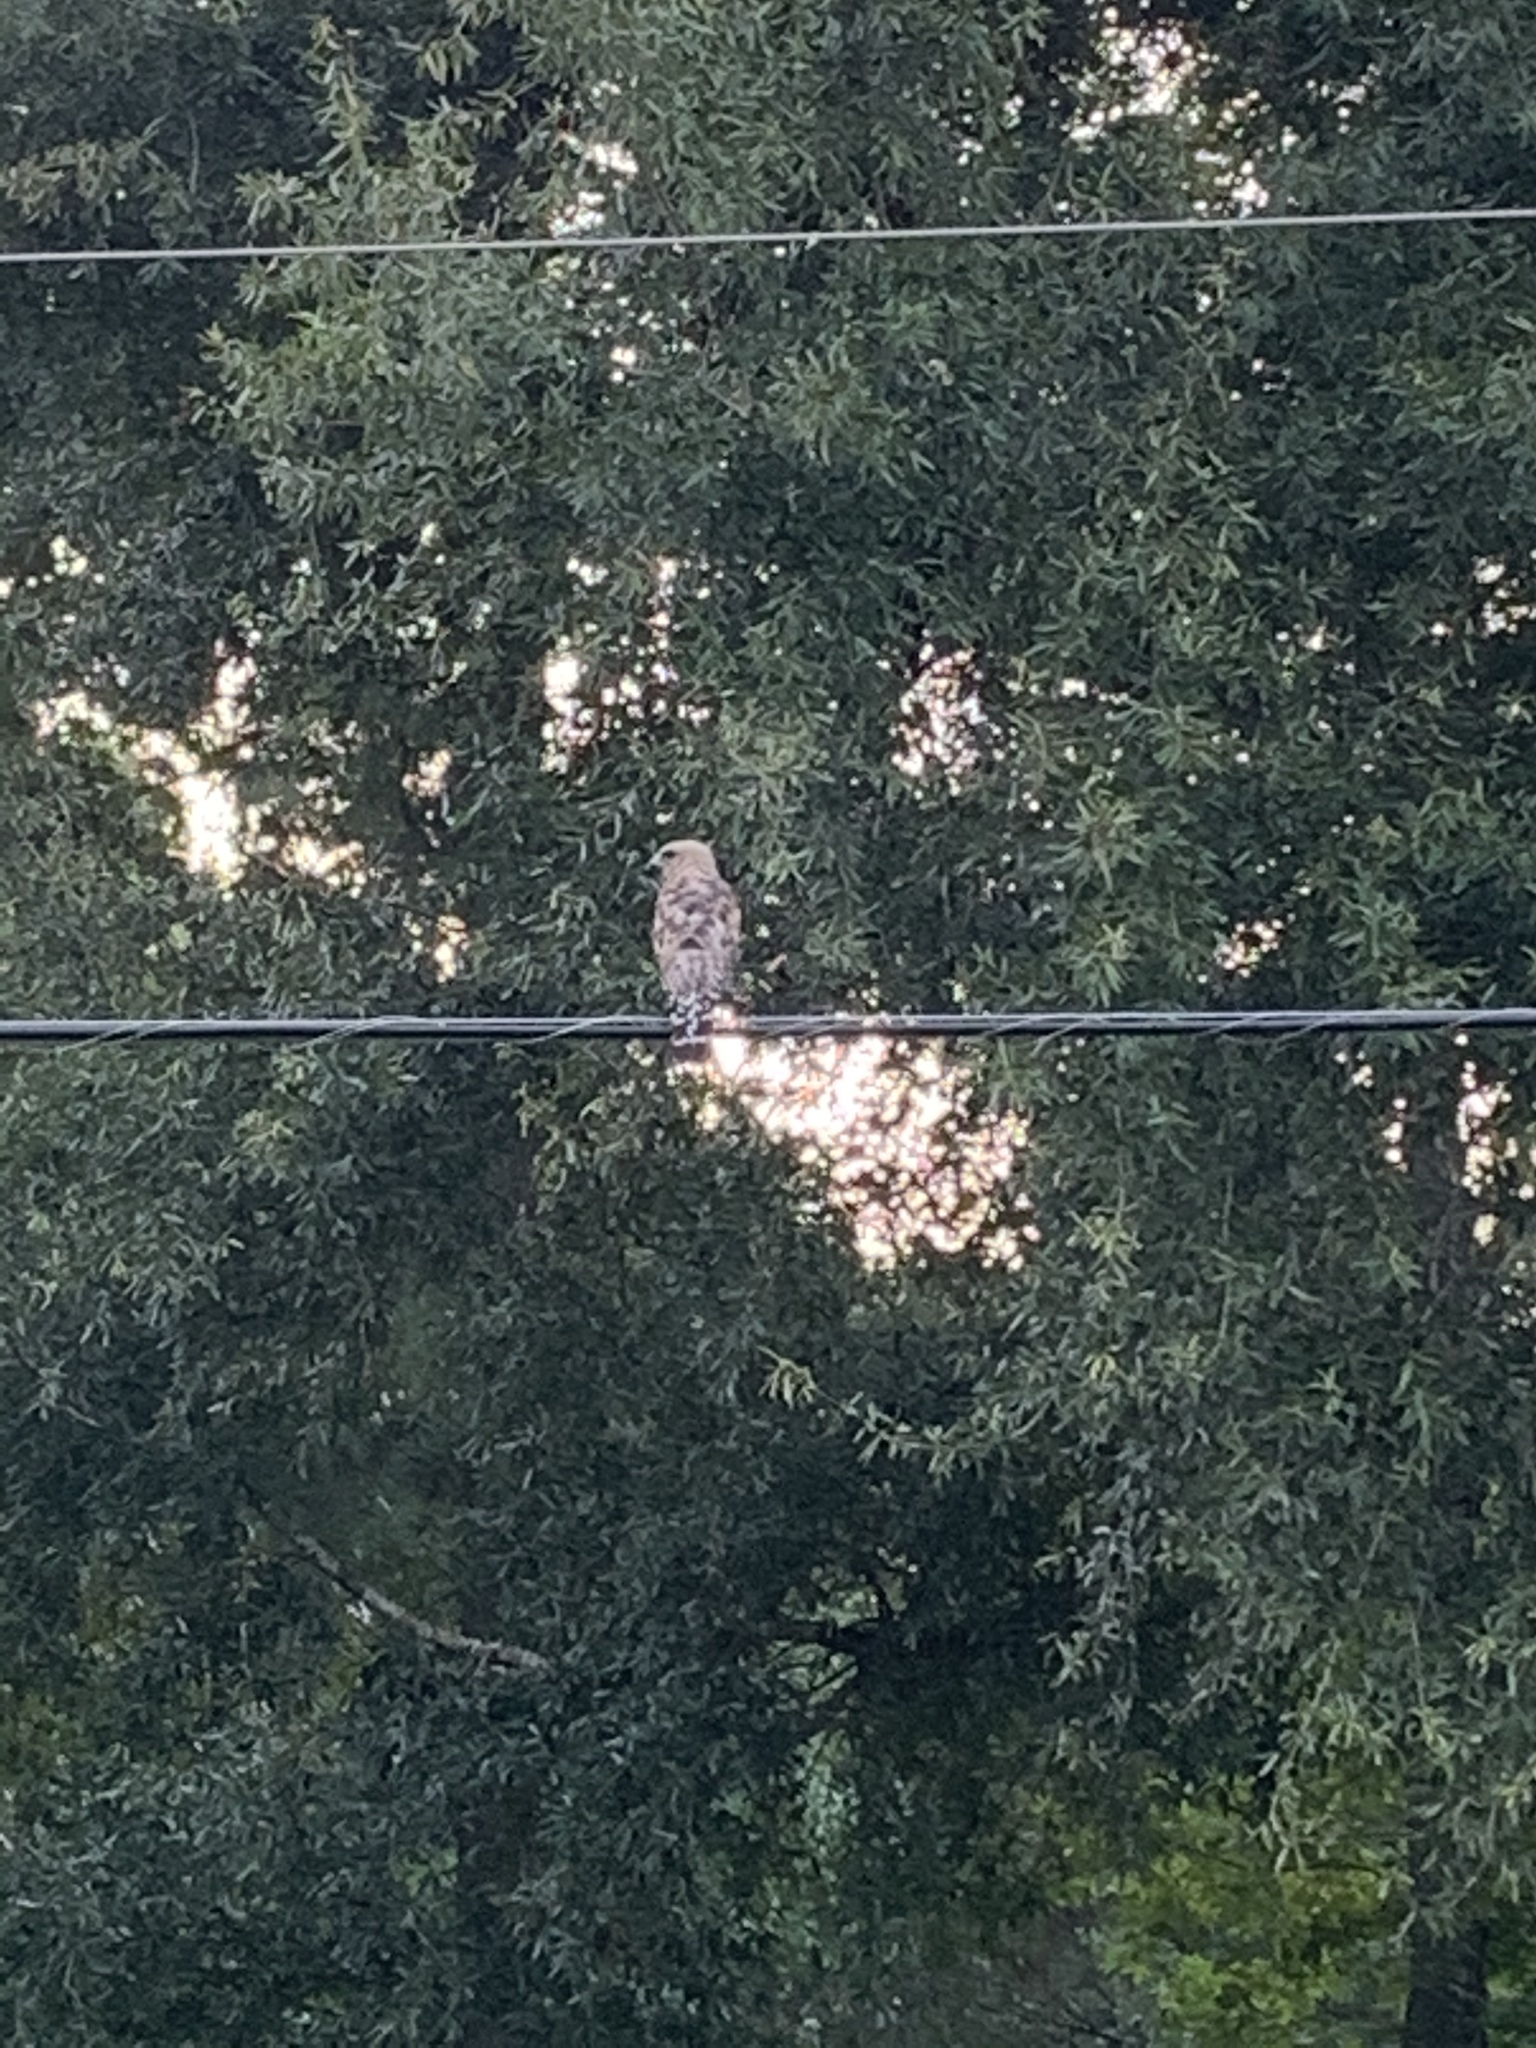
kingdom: Animalia
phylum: Chordata
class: Aves
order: Accipitriformes
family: Accipitridae
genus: Buteo
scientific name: Buteo lineatus
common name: Red-shouldered hawk
